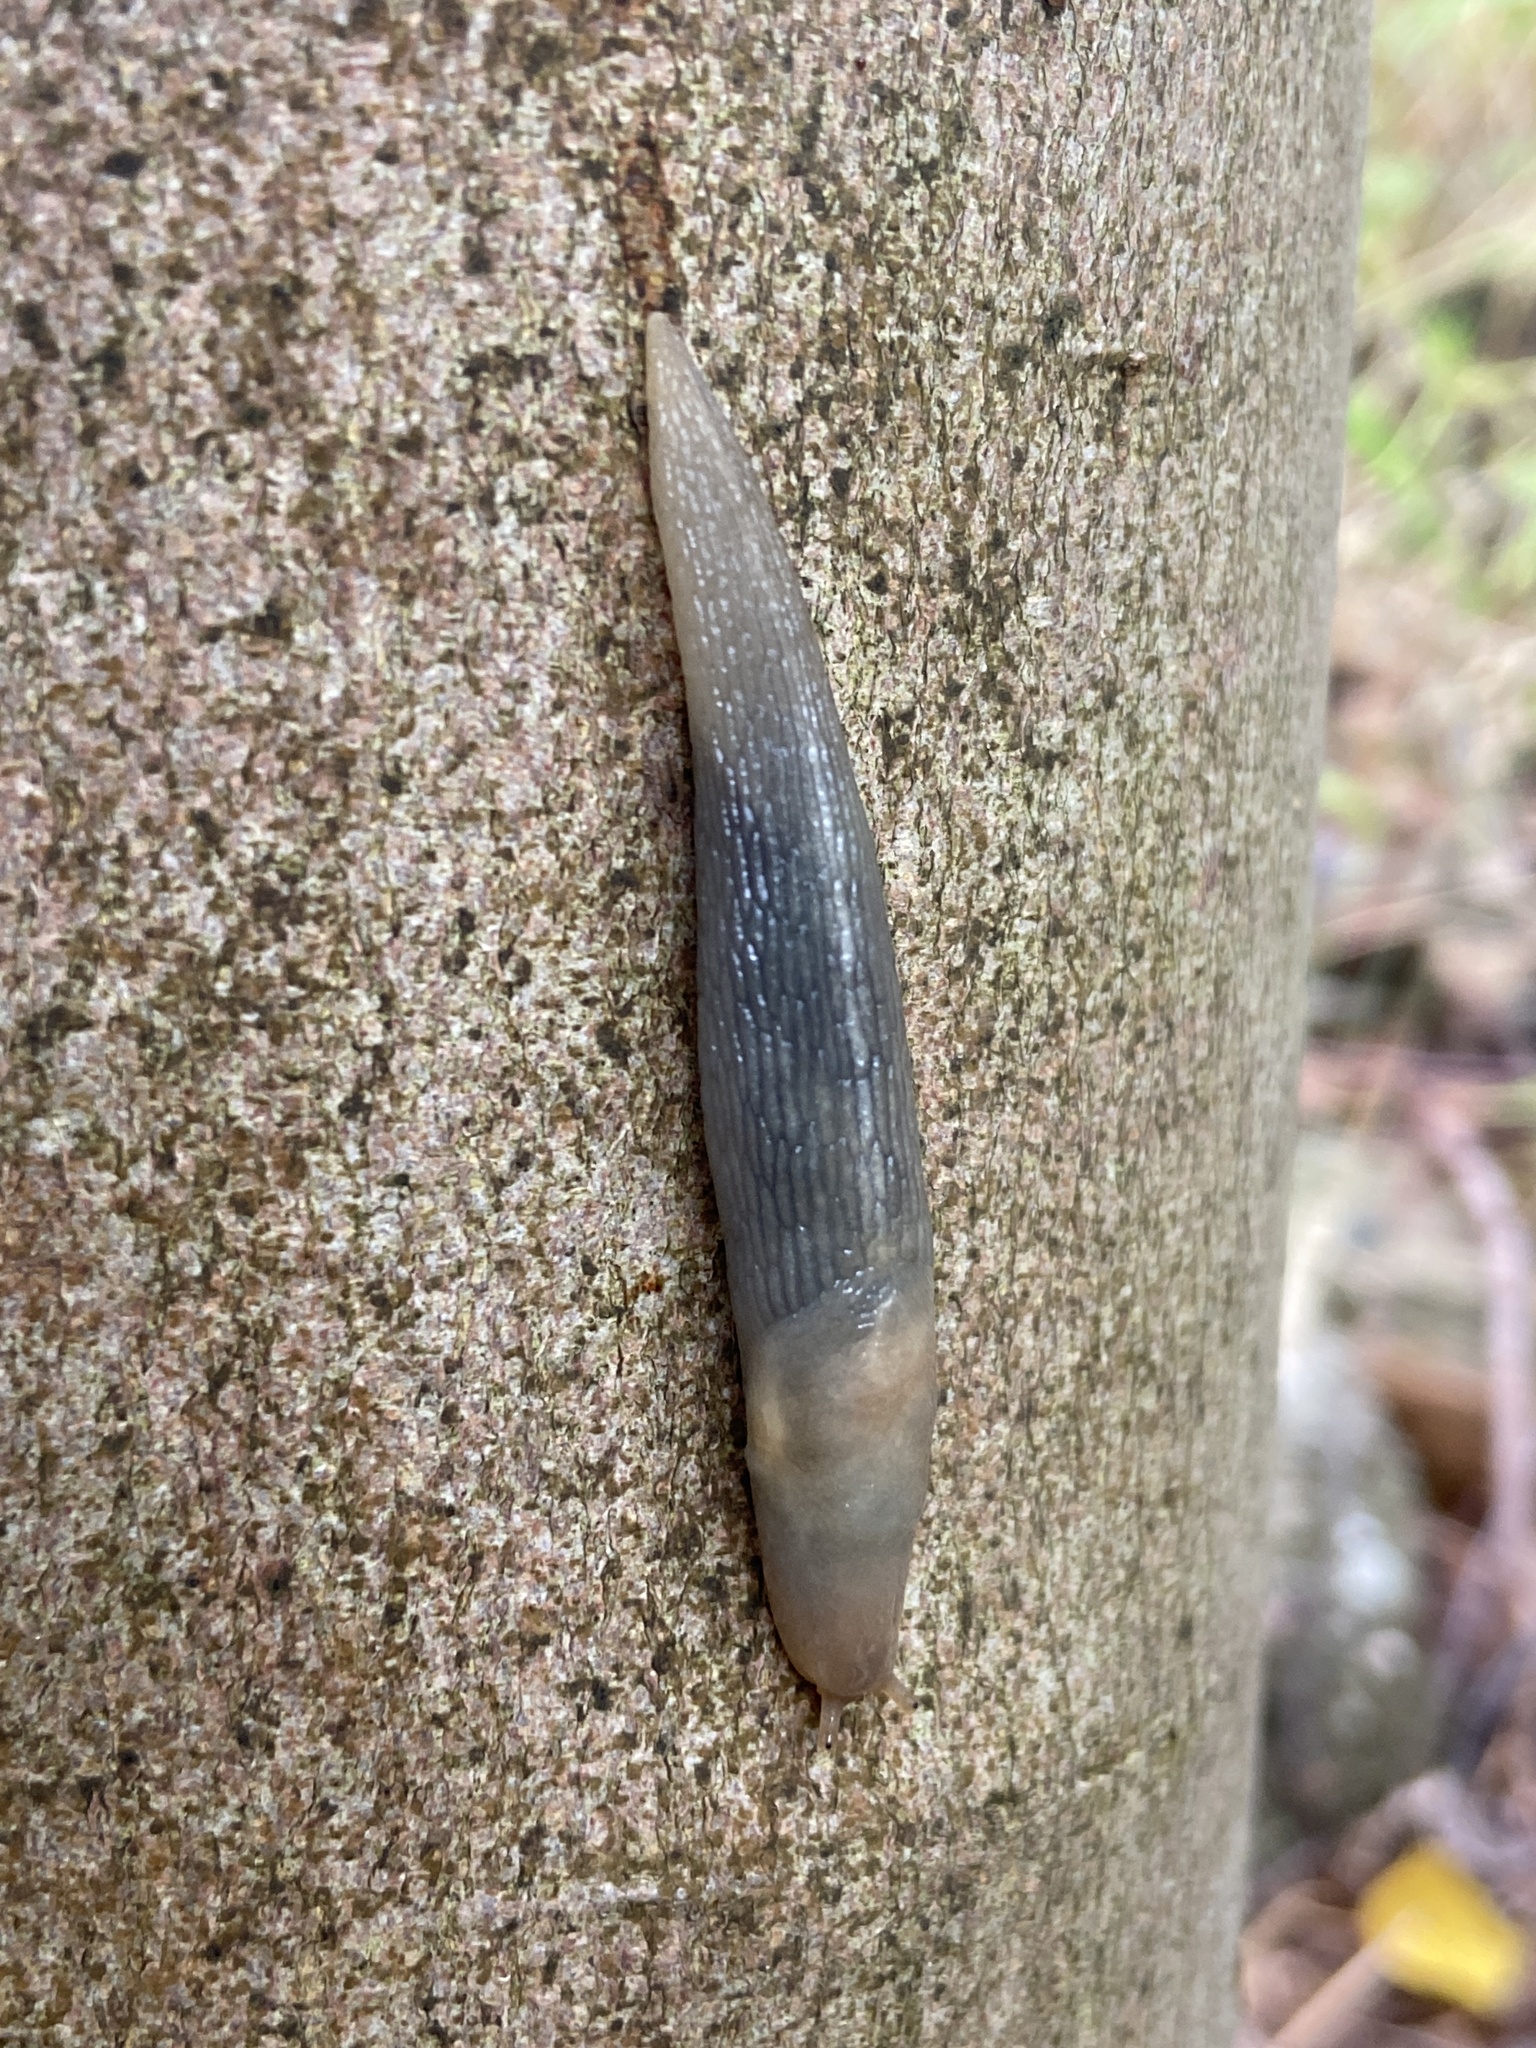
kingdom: Animalia
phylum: Mollusca
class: Gastropoda
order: Stylommatophora
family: Limacidae
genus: Lehmannia
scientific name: Lehmannia marginata
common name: Tree slug
